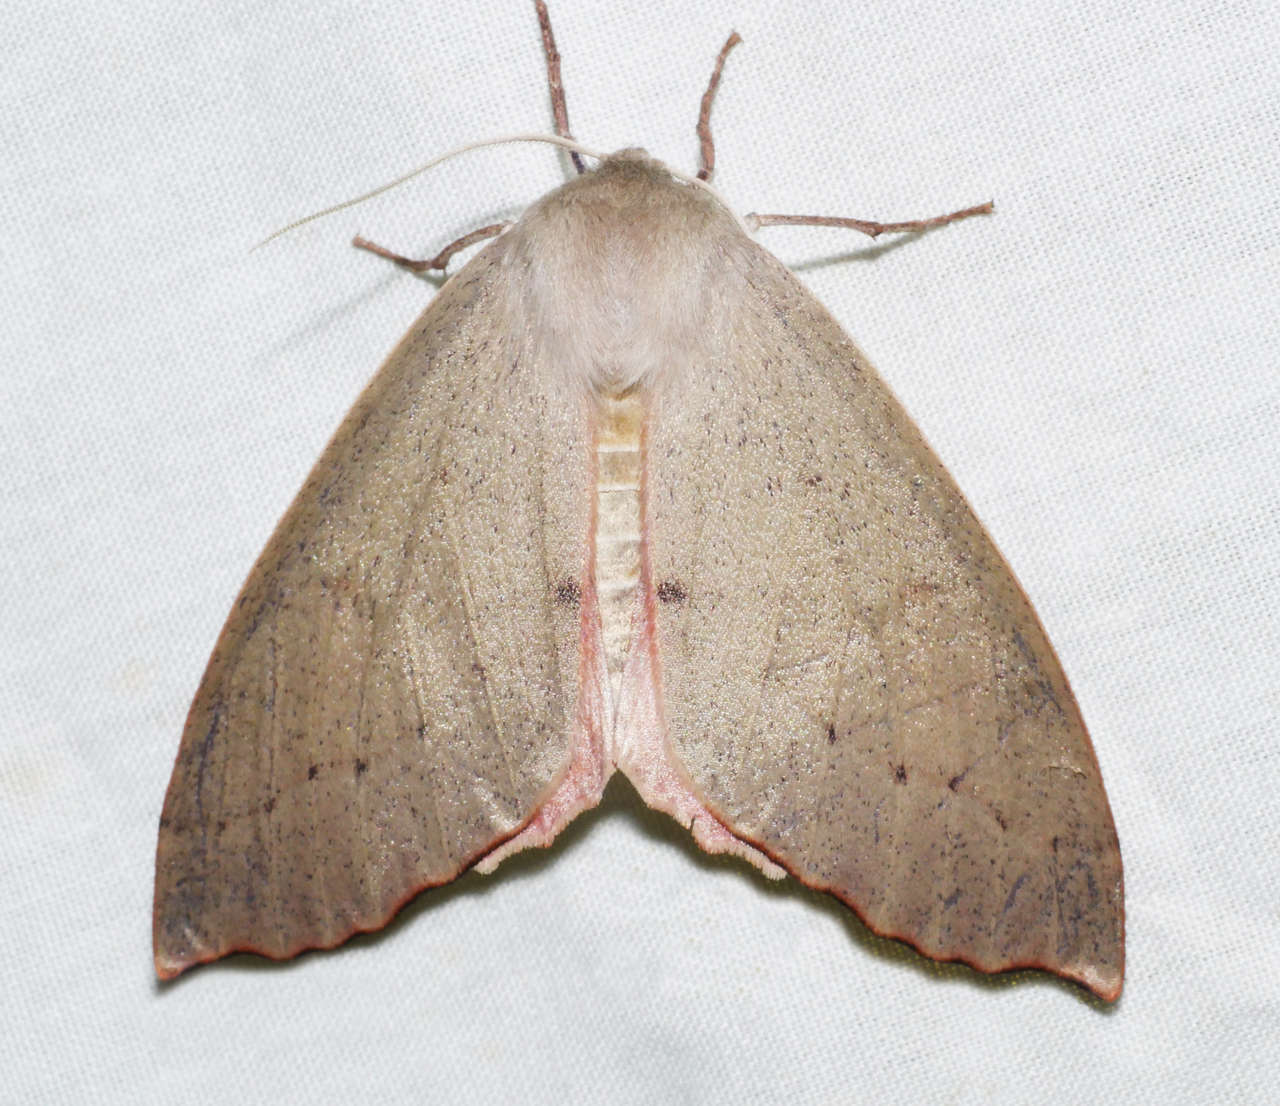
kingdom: Animalia
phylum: Arthropoda
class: Insecta
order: Lepidoptera
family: Geometridae
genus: Arhodia
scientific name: Arhodia lasiocamparia
